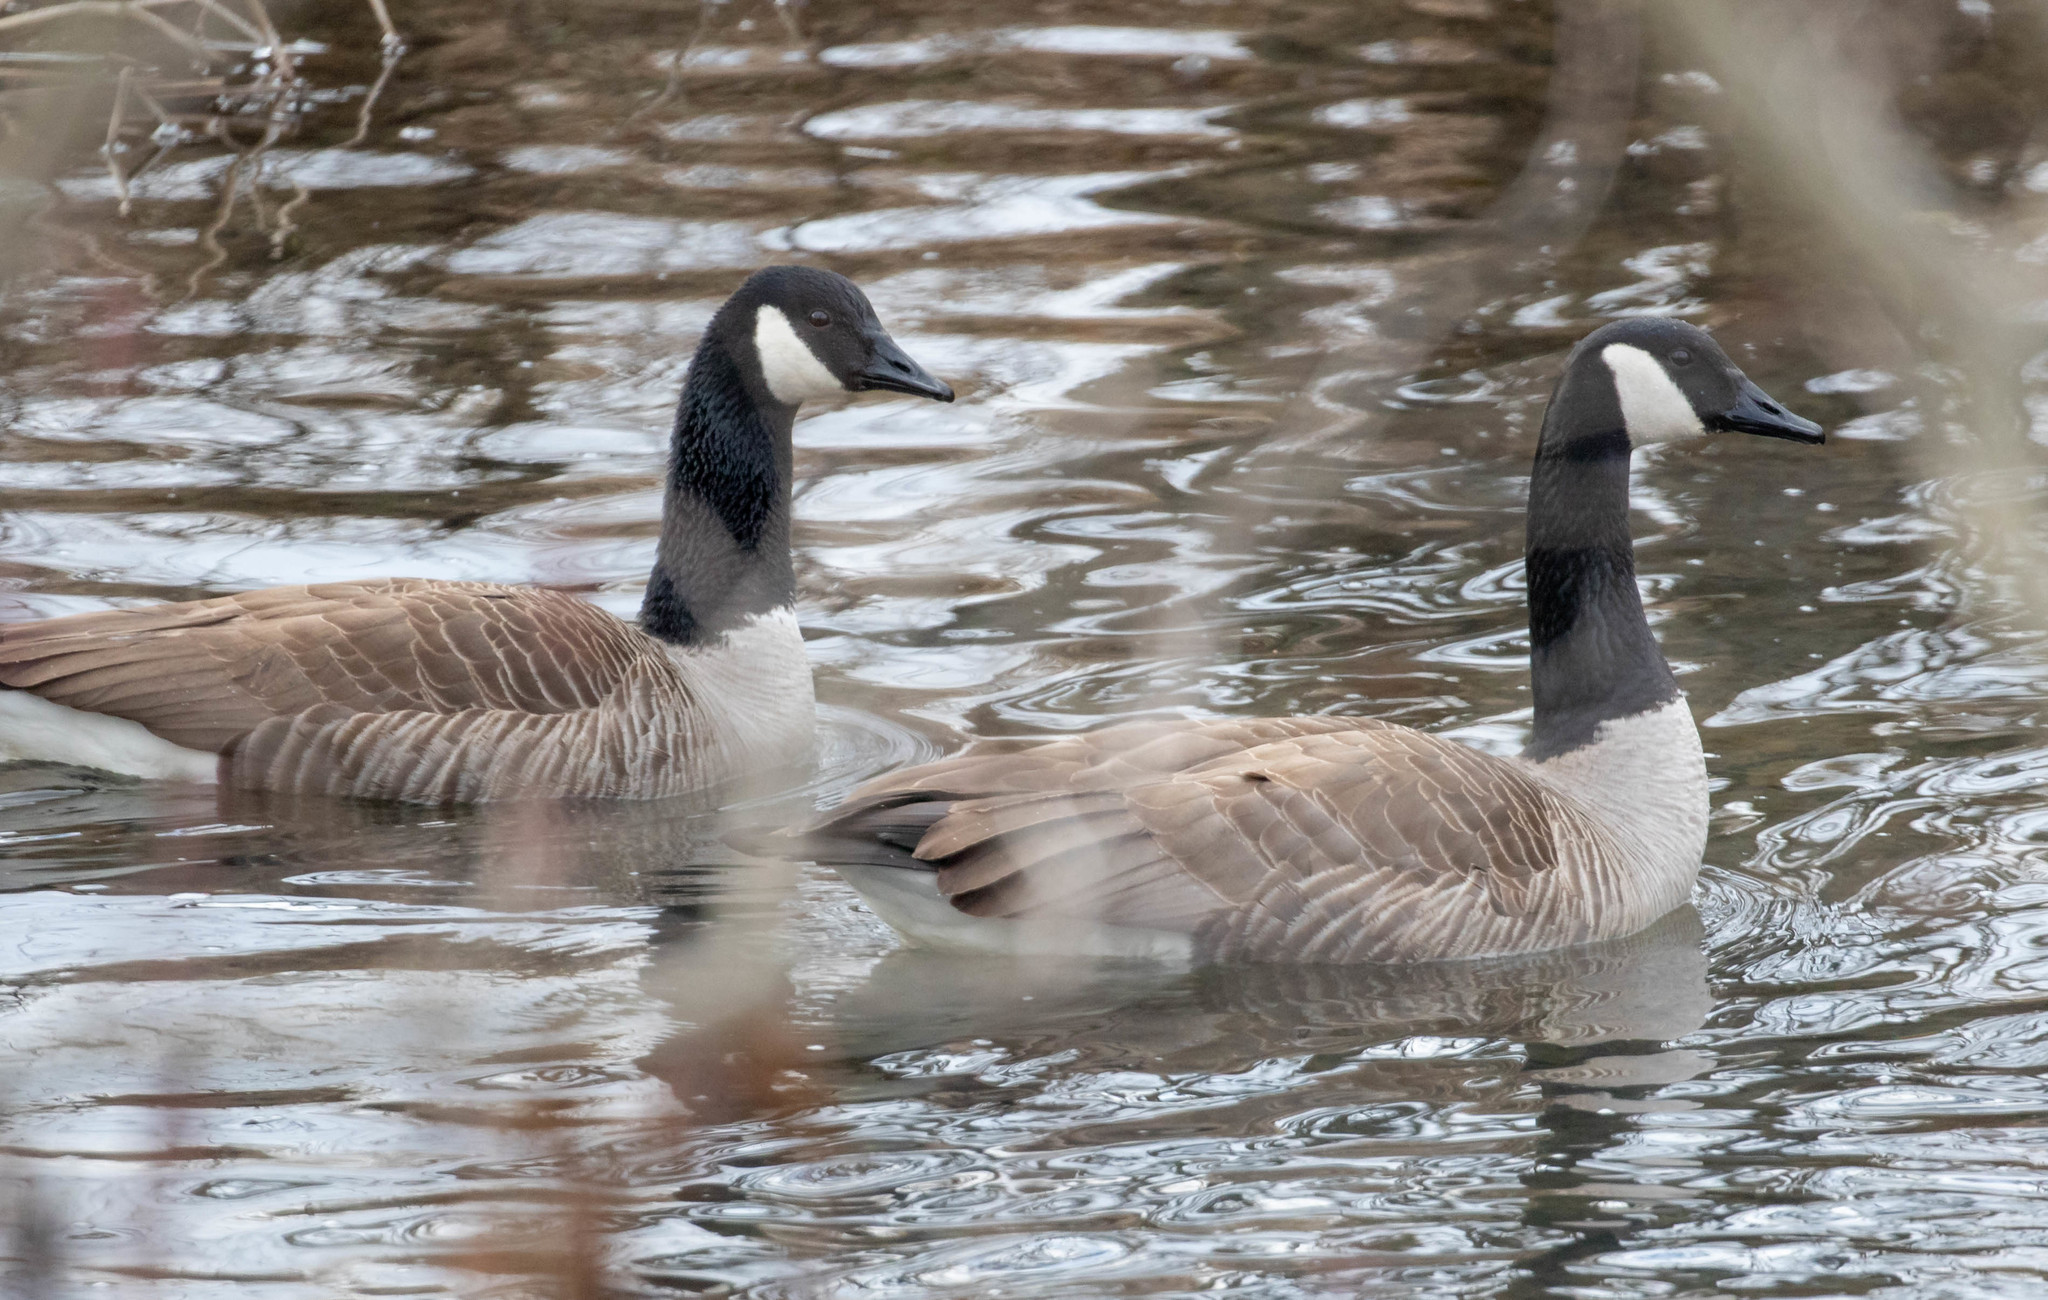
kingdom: Animalia
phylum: Chordata
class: Aves
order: Anseriformes
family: Anatidae
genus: Branta
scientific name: Branta canadensis
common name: Canada goose
